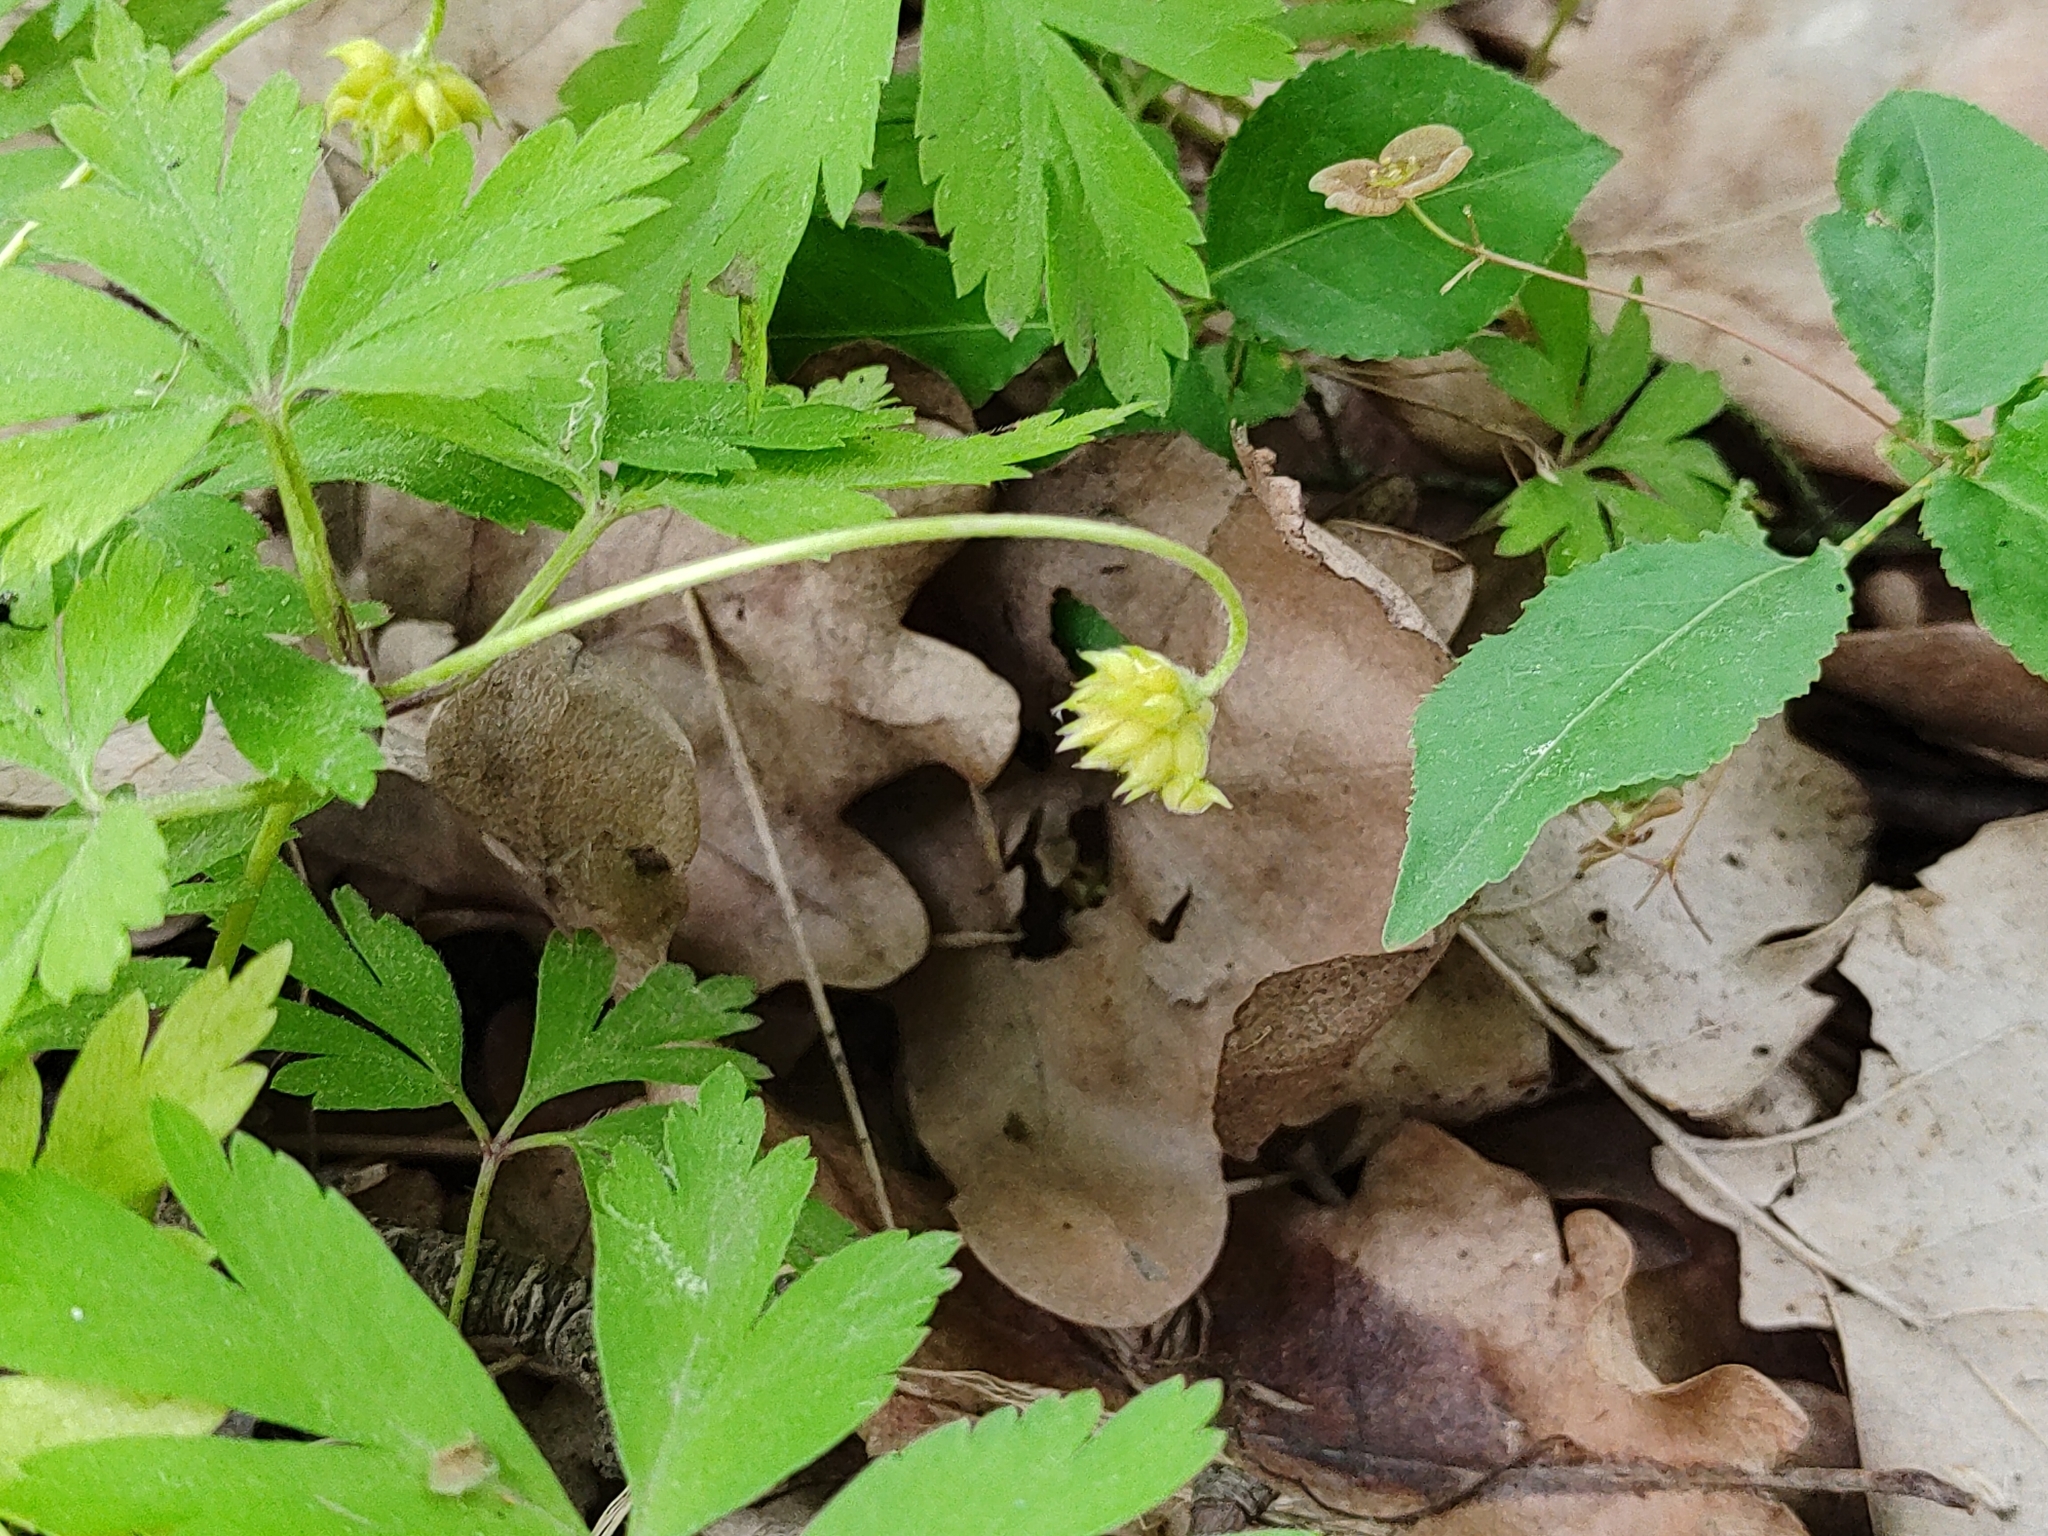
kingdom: Plantae
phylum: Tracheophyta
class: Magnoliopsida
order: Ranunculales
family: Ranunculaceae
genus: Anemone
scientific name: Anemone nemorosa
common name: Wood anemone
